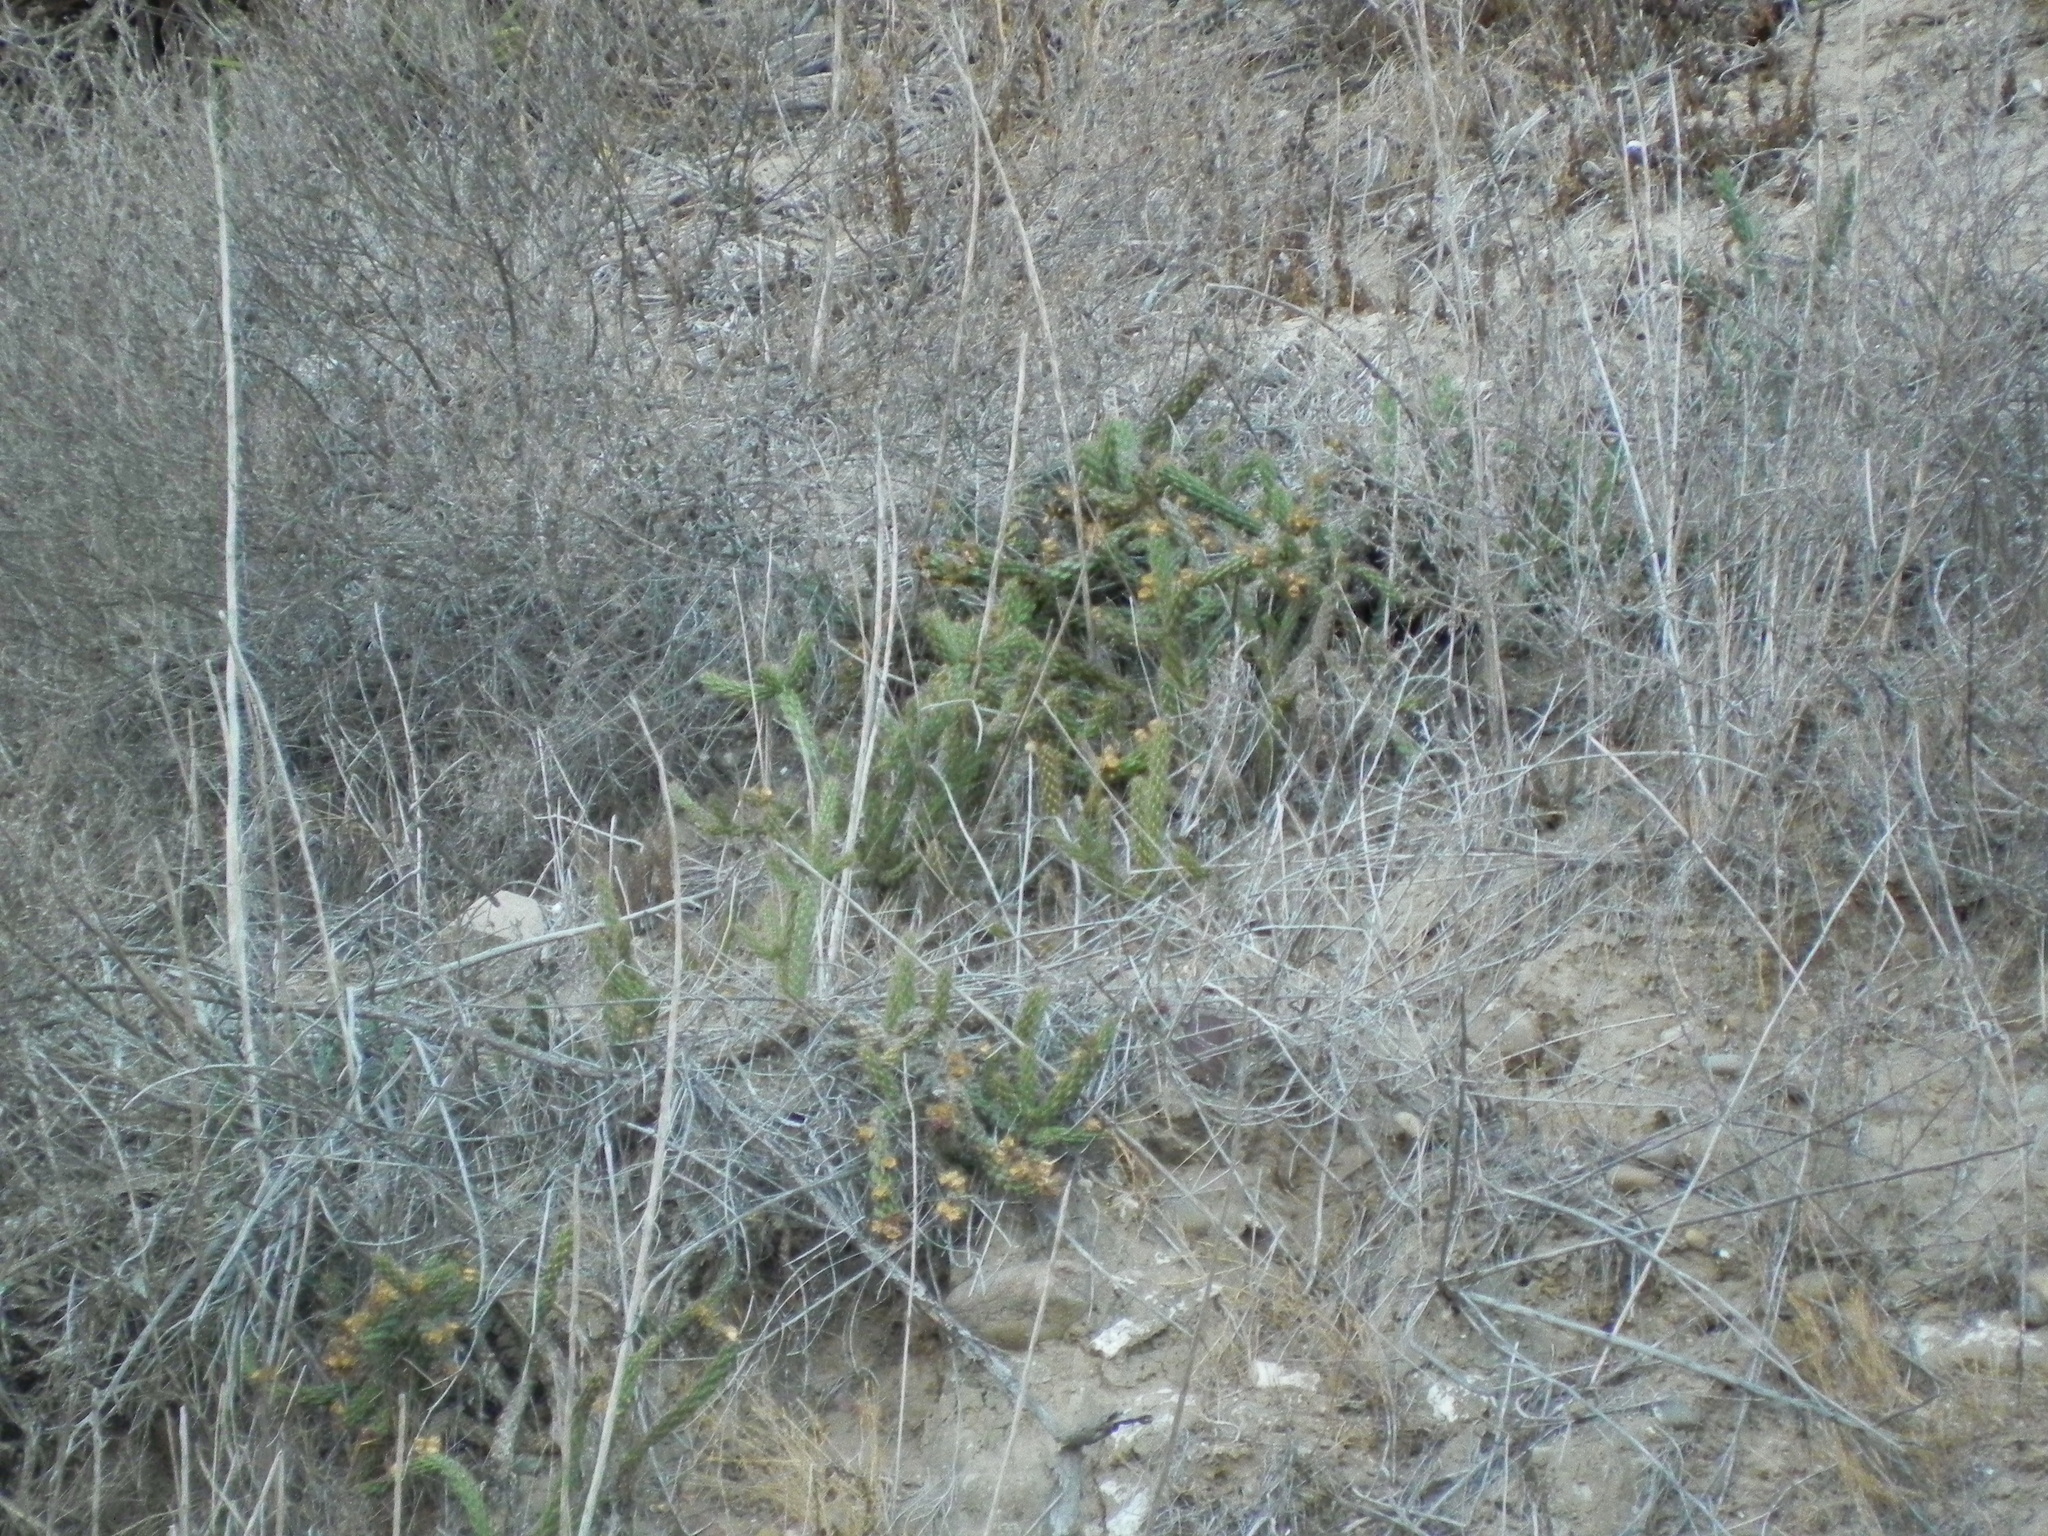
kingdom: Plantae
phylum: Tracheophyta
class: Magnoliopsida
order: Caryophyllales
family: Cactaceae
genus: Cylindropuntia
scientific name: Cylindropuntia californica
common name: Snake cholla
